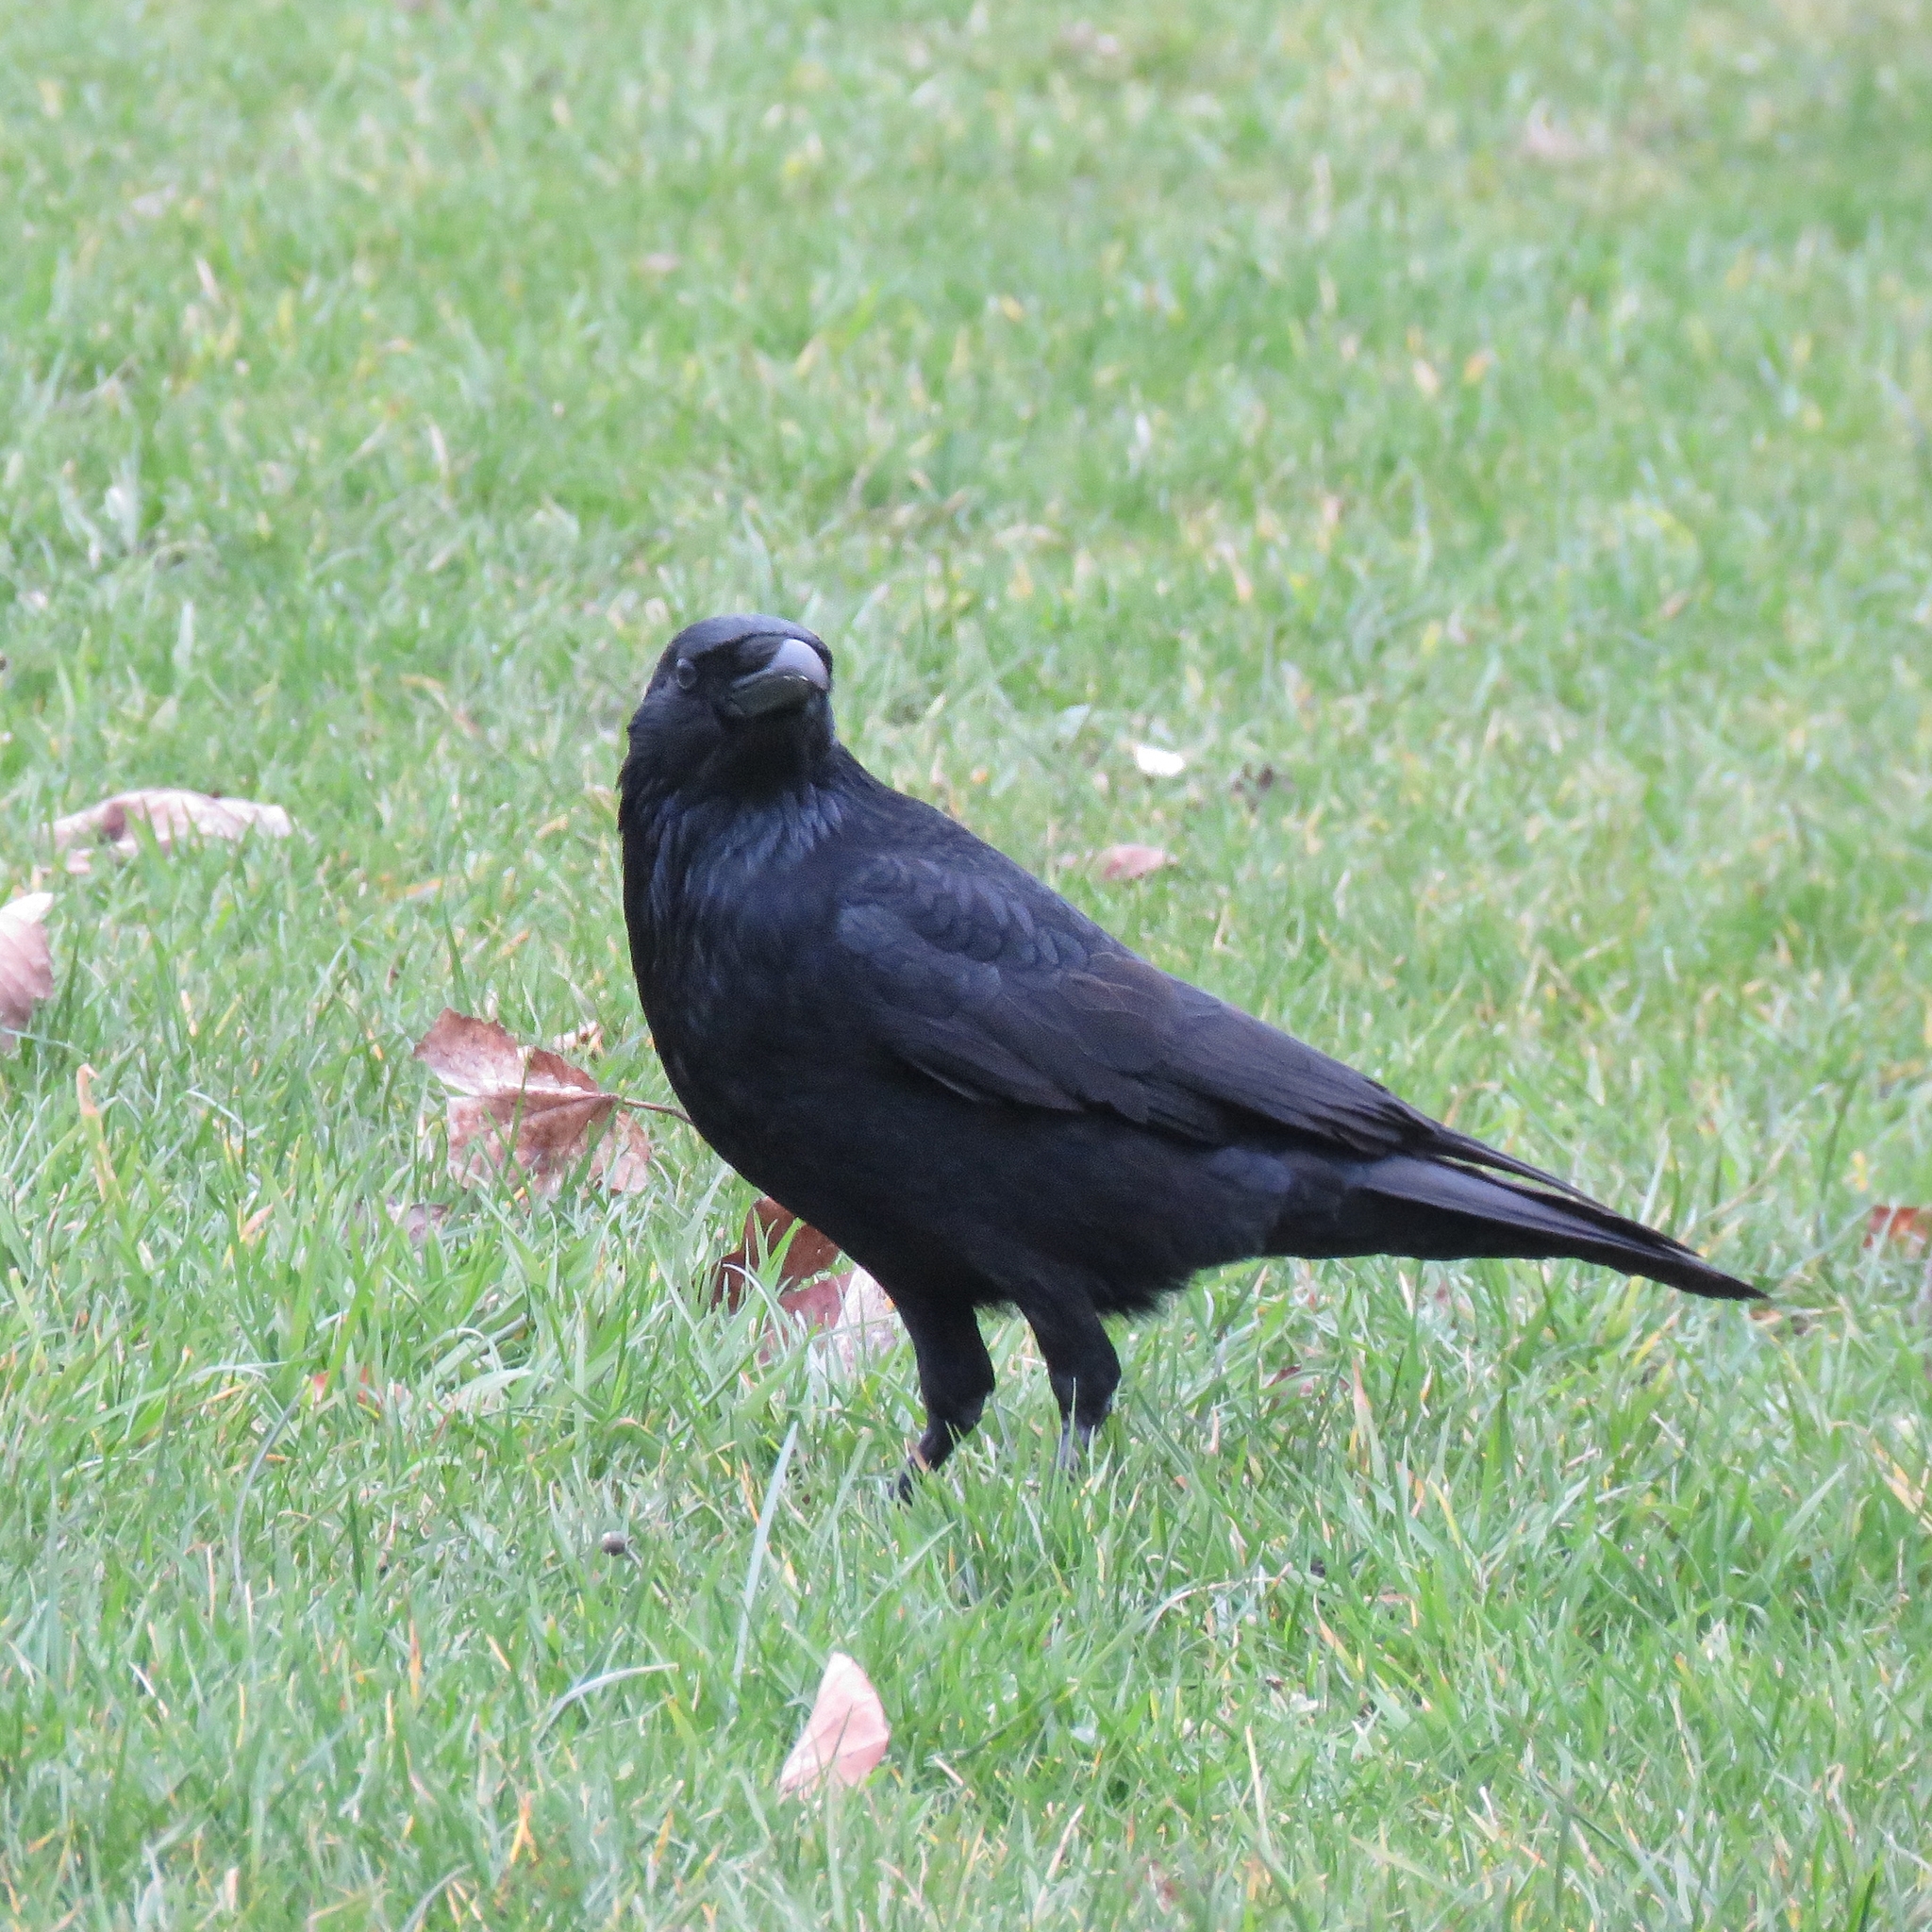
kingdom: Animalia
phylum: Chordata
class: Aves
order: Passeriformes
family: Corvidae
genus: Corvus
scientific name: Corvus corone
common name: Carrion crow
